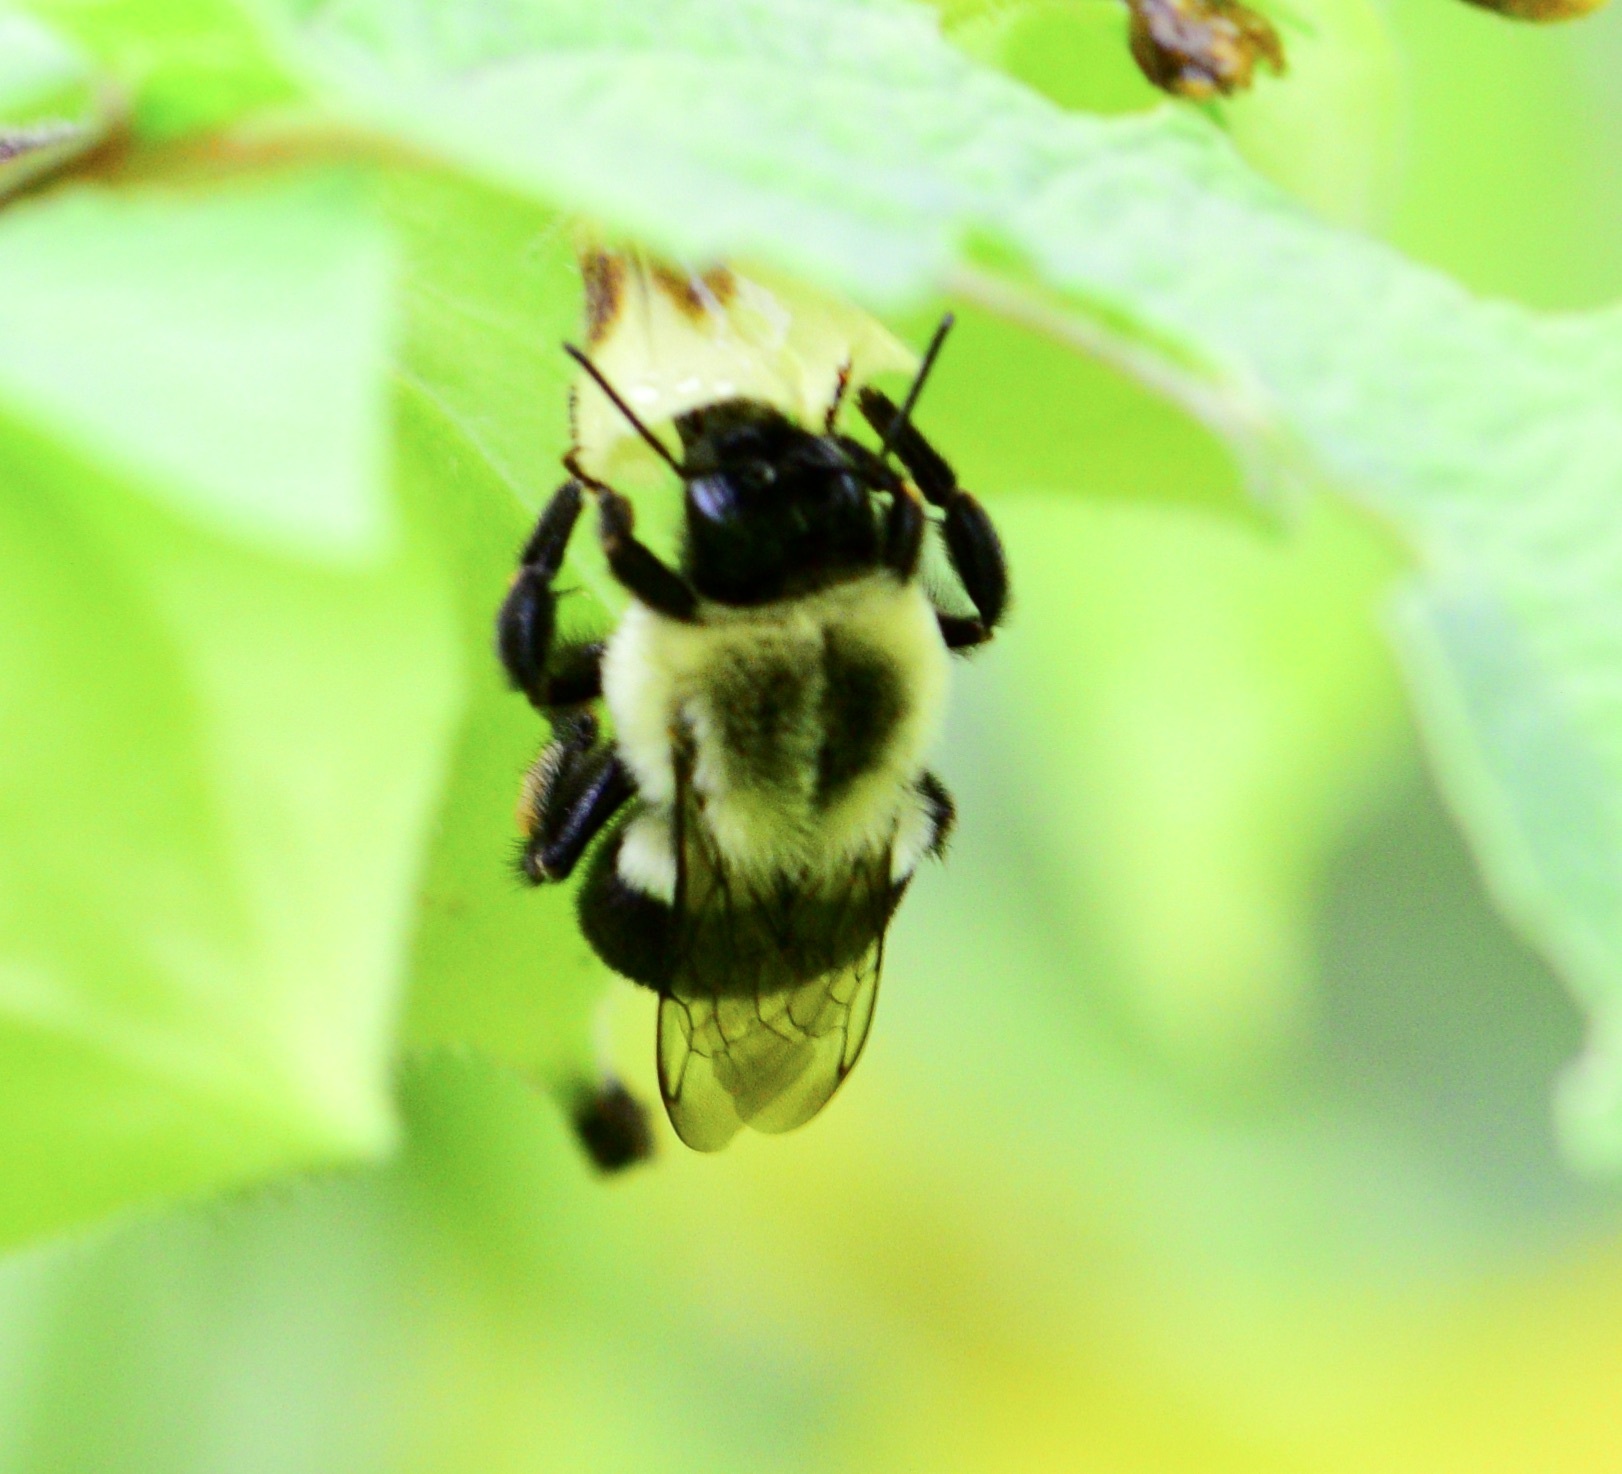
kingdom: Animalia
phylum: Arthropoda
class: Insecta
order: Hymenoptera
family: Apidae
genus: Bombus
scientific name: Bombus impatiens
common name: Common eastern bumble bee
